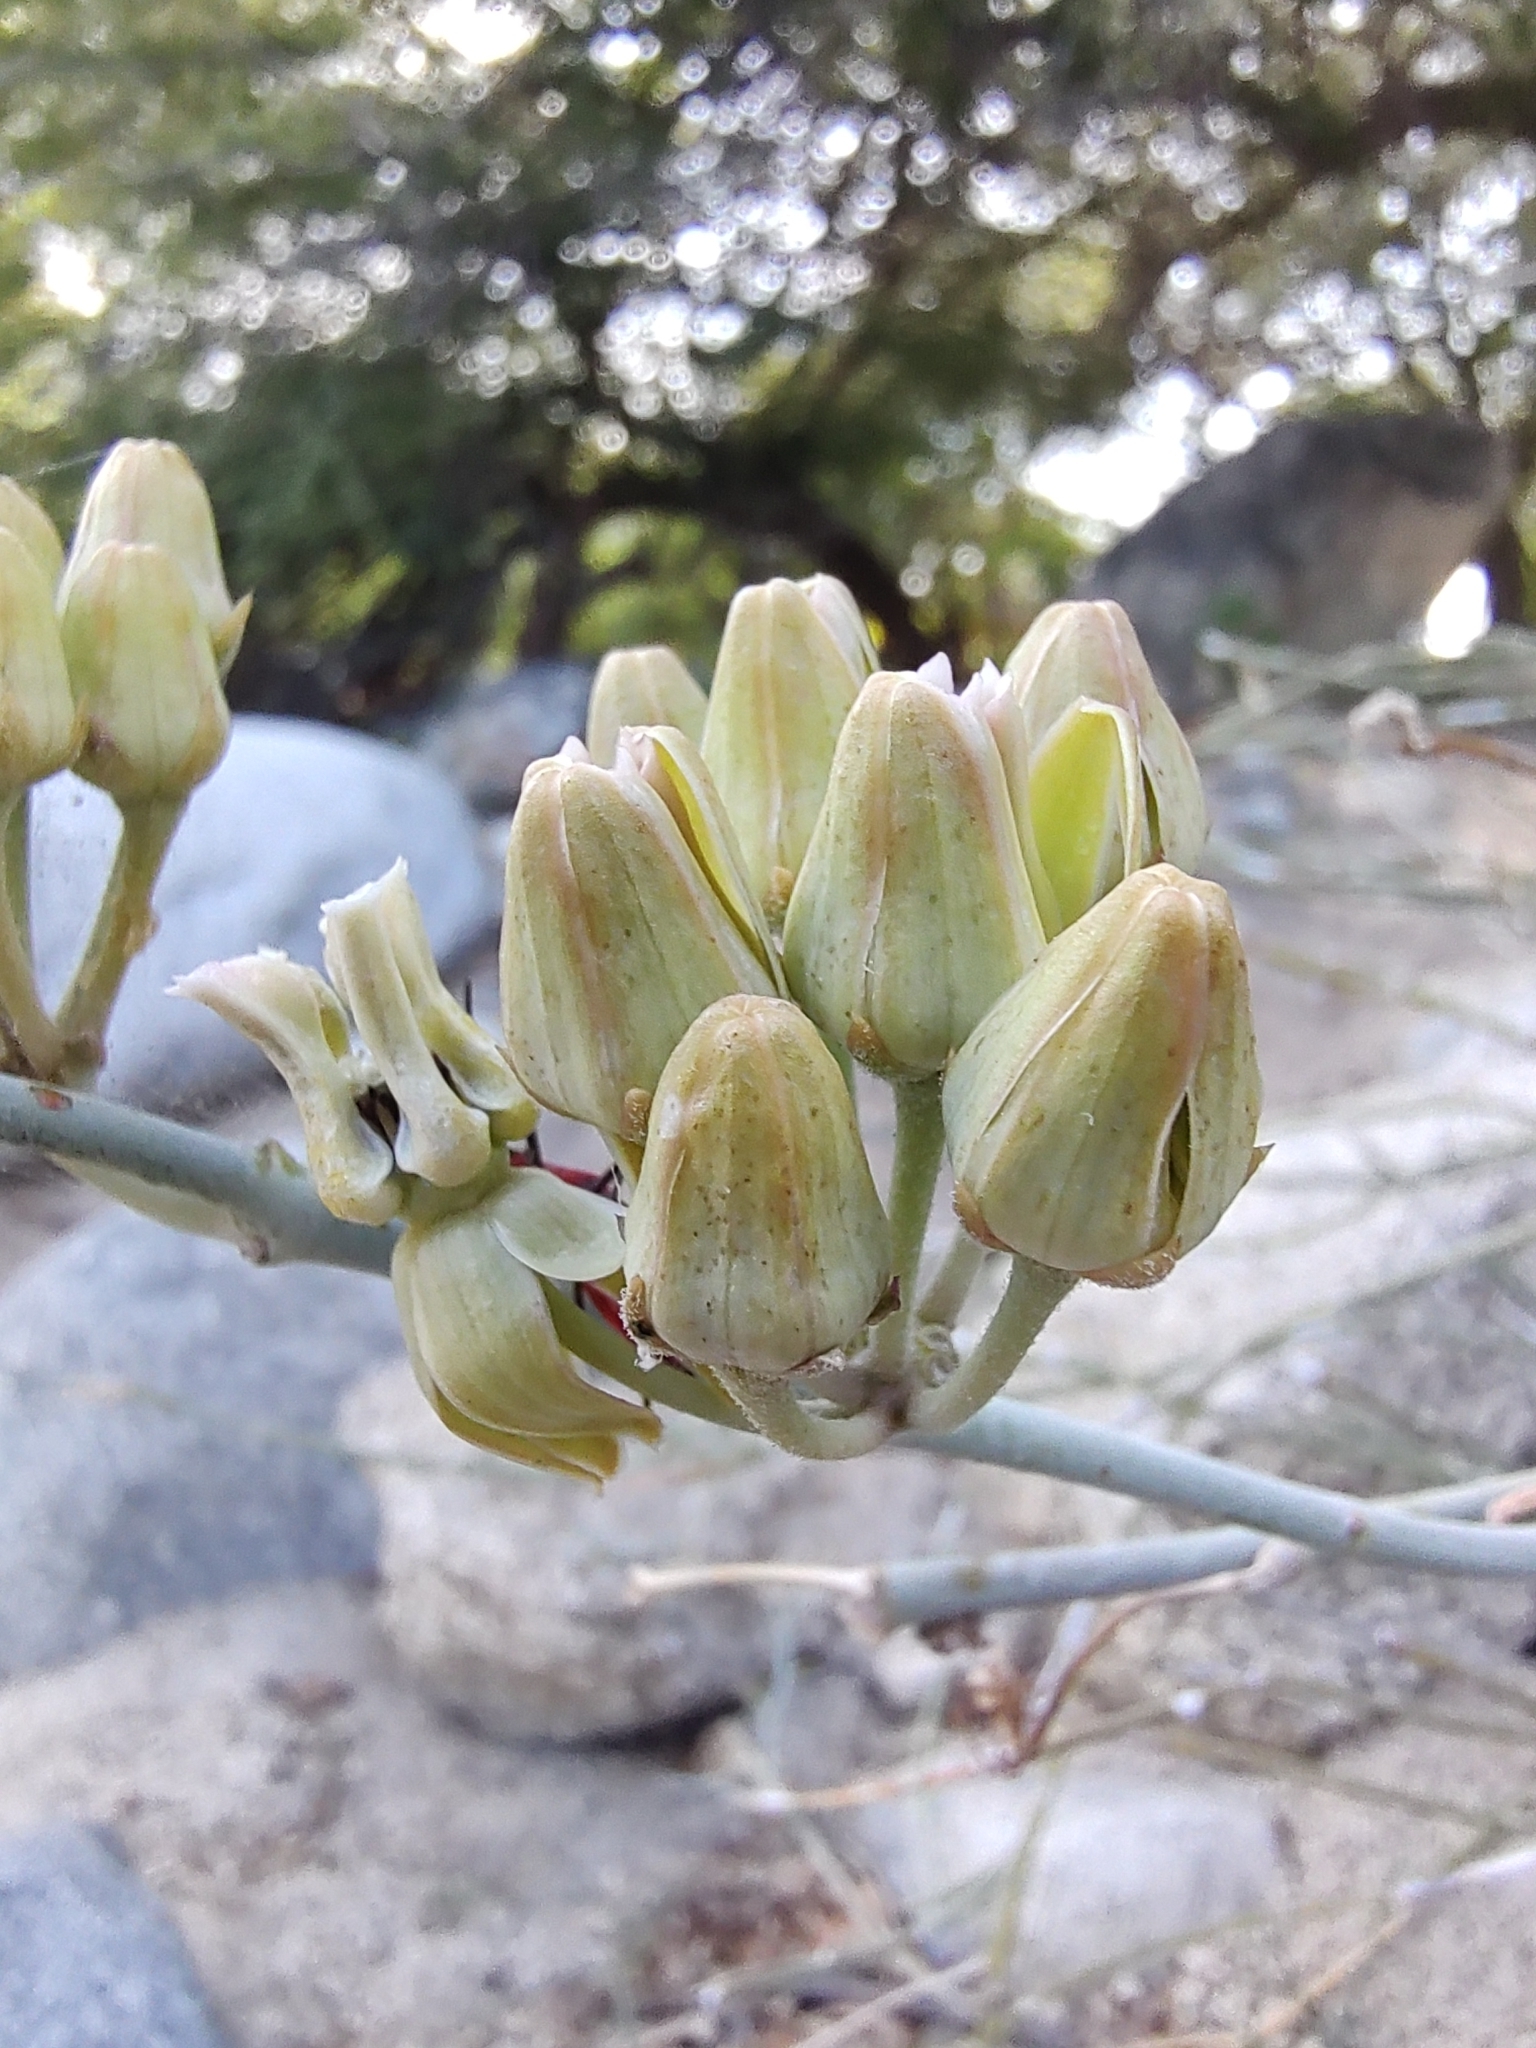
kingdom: Plantae
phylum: Tracheophyta
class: Magnoliopsida
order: Gentianales
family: Apocynaceae
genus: Asclepias
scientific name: Asclepias subulata
